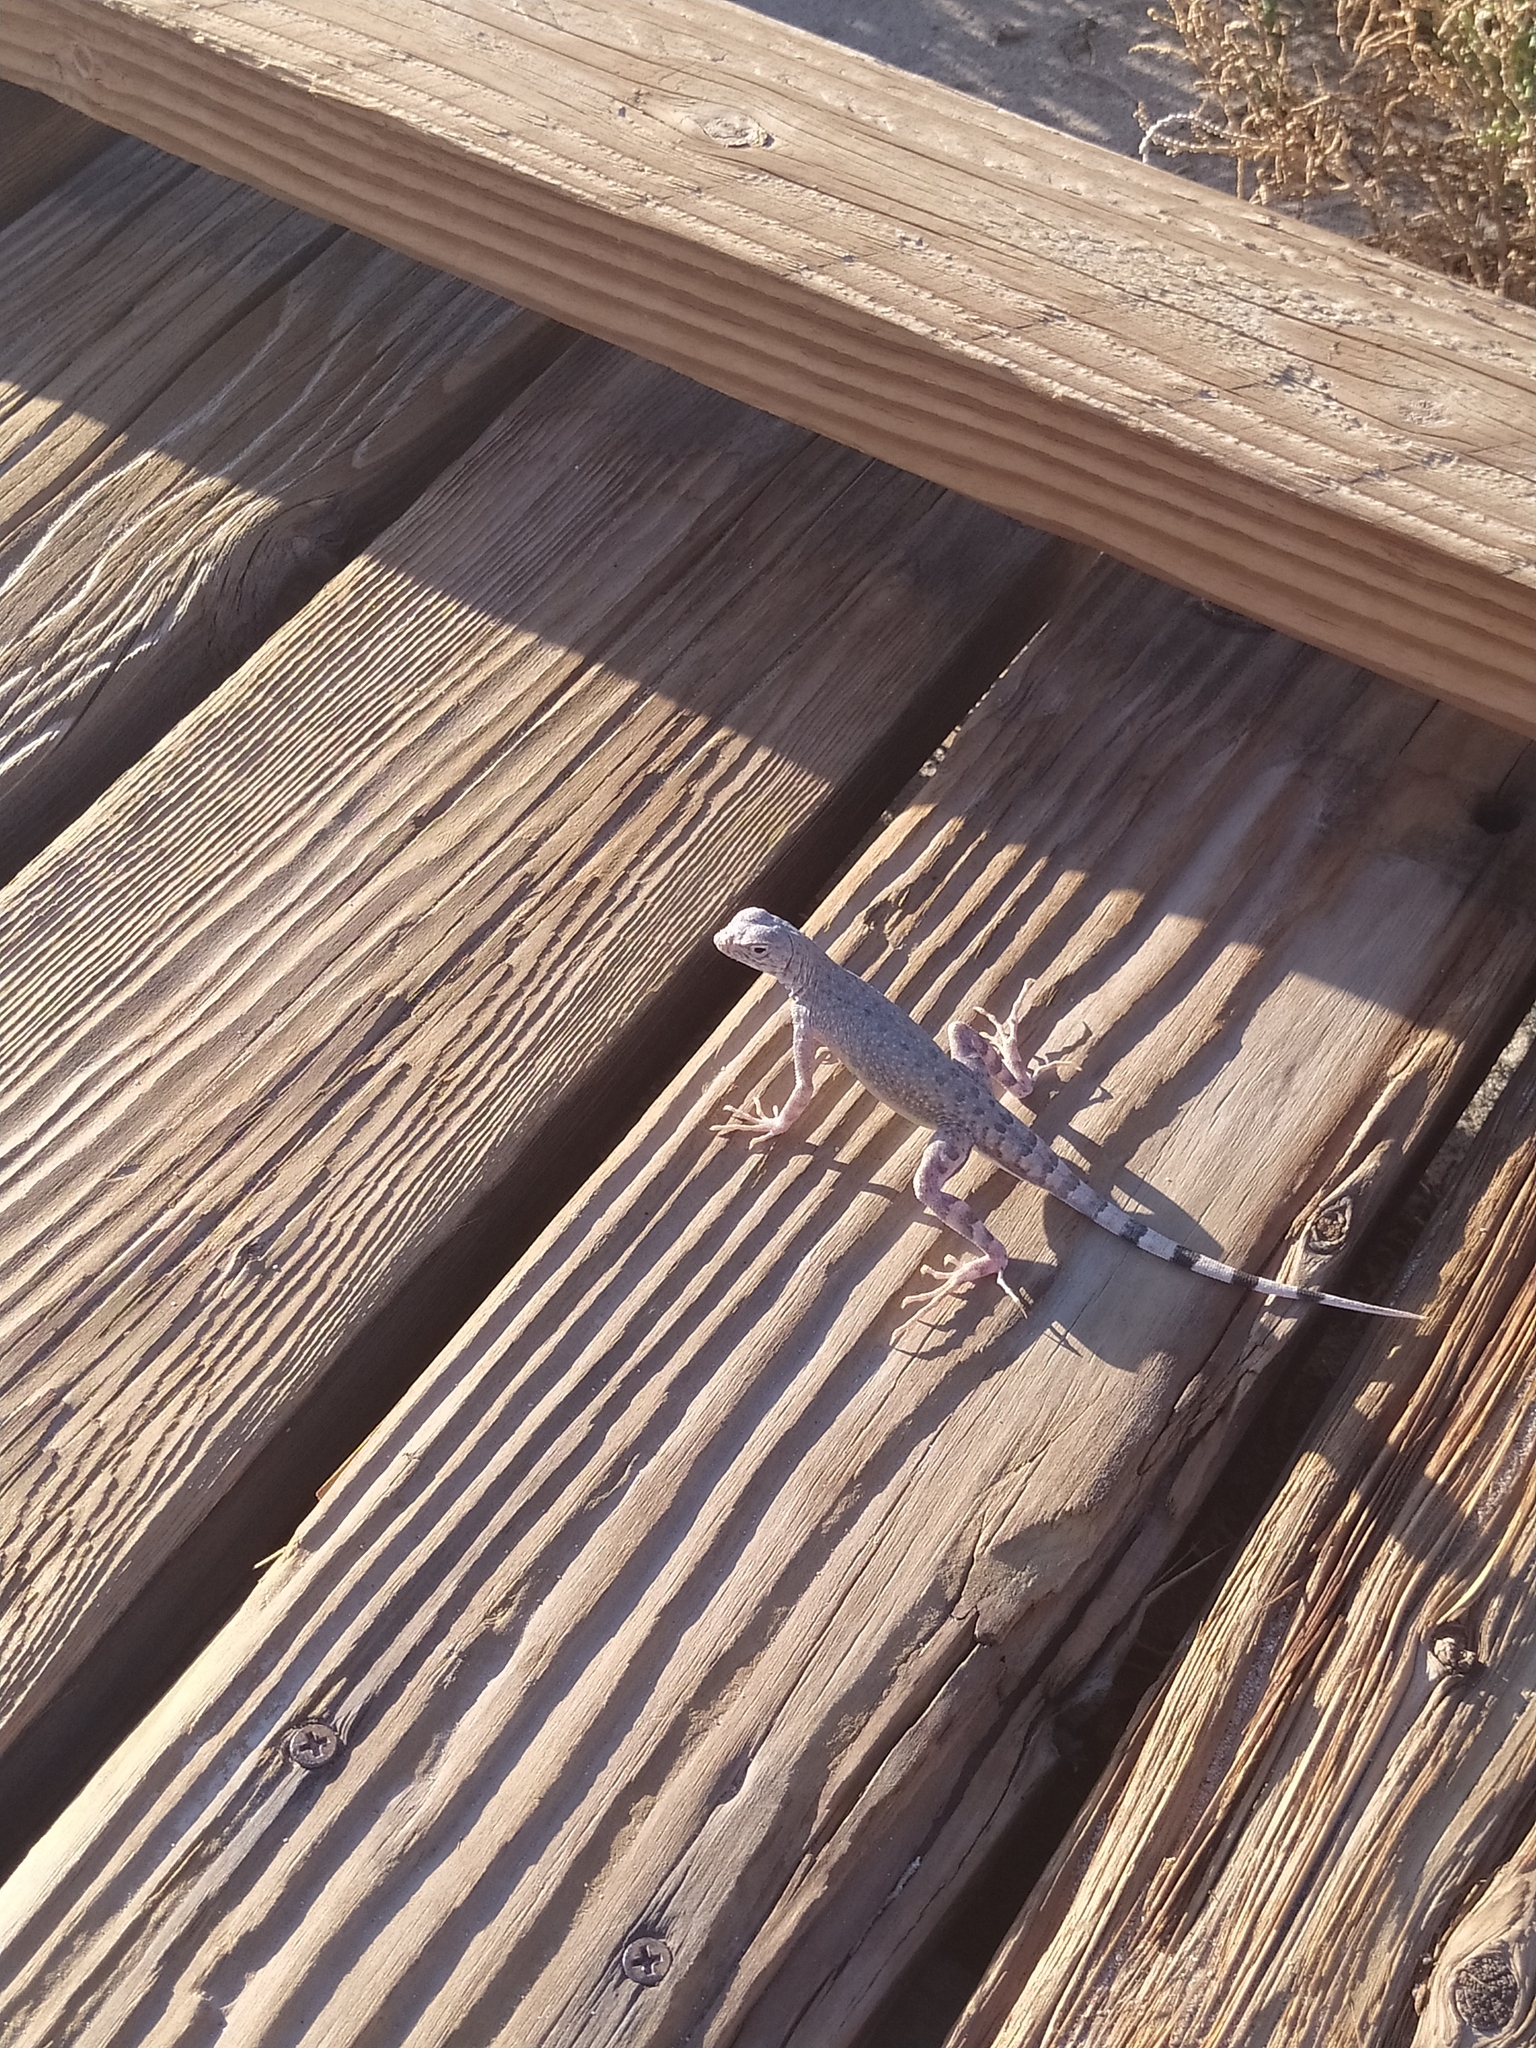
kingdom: Animalia
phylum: Chordata
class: Squamata
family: Phrynosomatidae
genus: Callisaurus
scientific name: Callisaurus draconoides
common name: Zebra-tailed lizard
